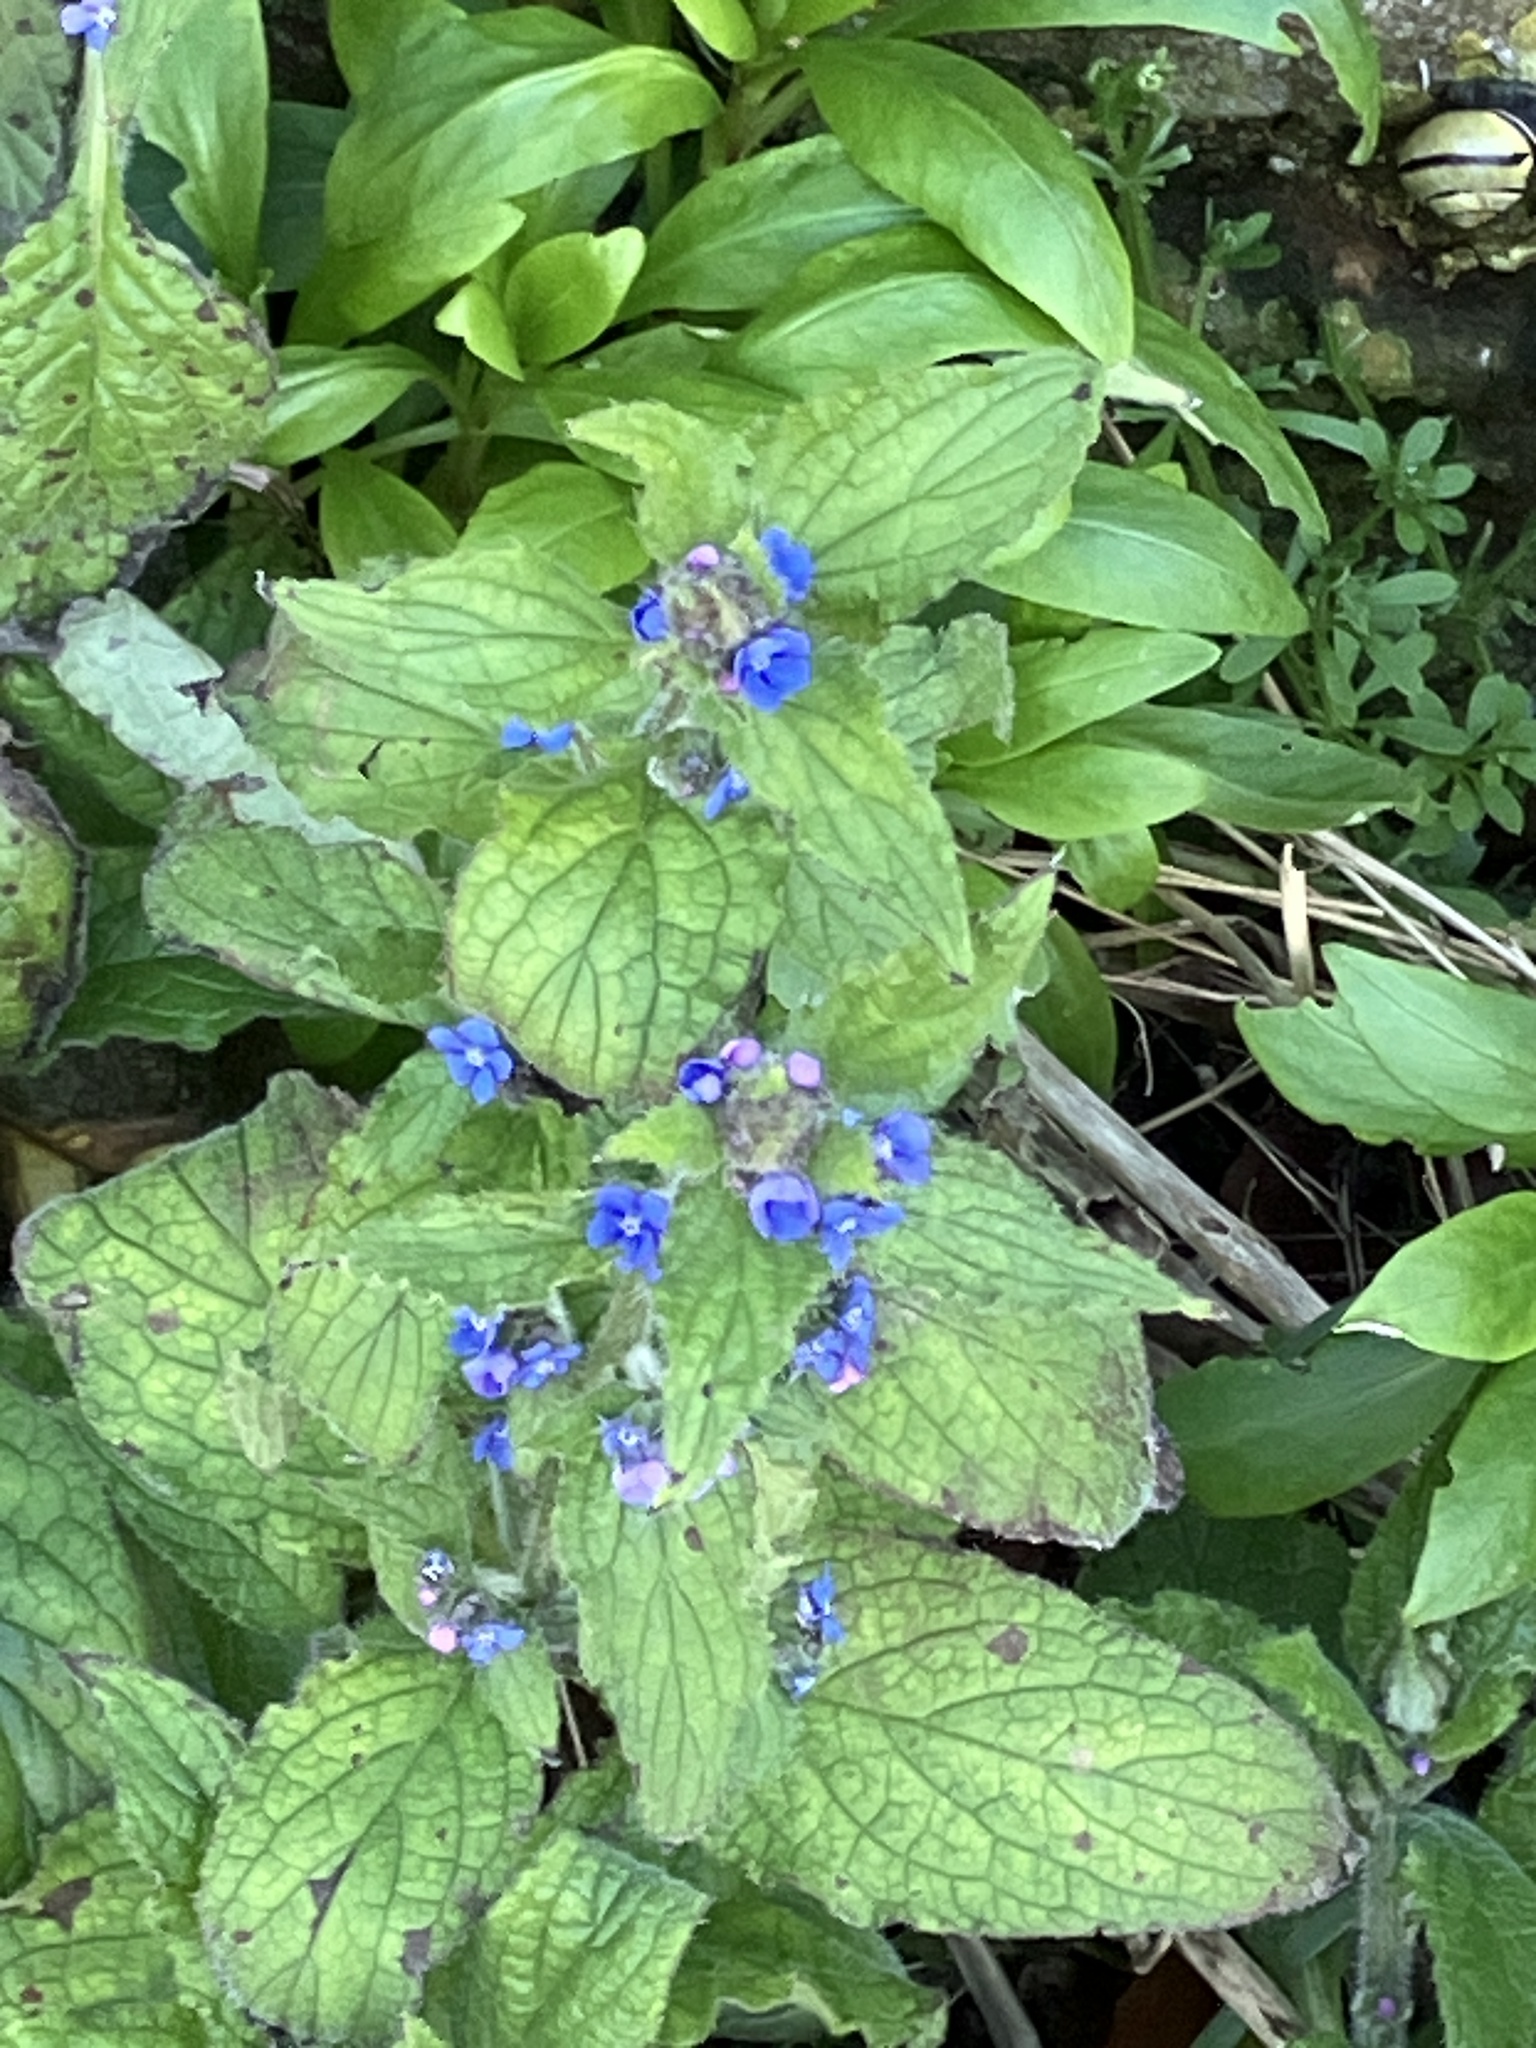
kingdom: Plantae
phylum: Tracheophyta
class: Magnoliopsida
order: Boraginales
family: Boraginaceae
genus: Pentaglottis
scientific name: Pentaglottis sempervirens
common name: Green alkanet
